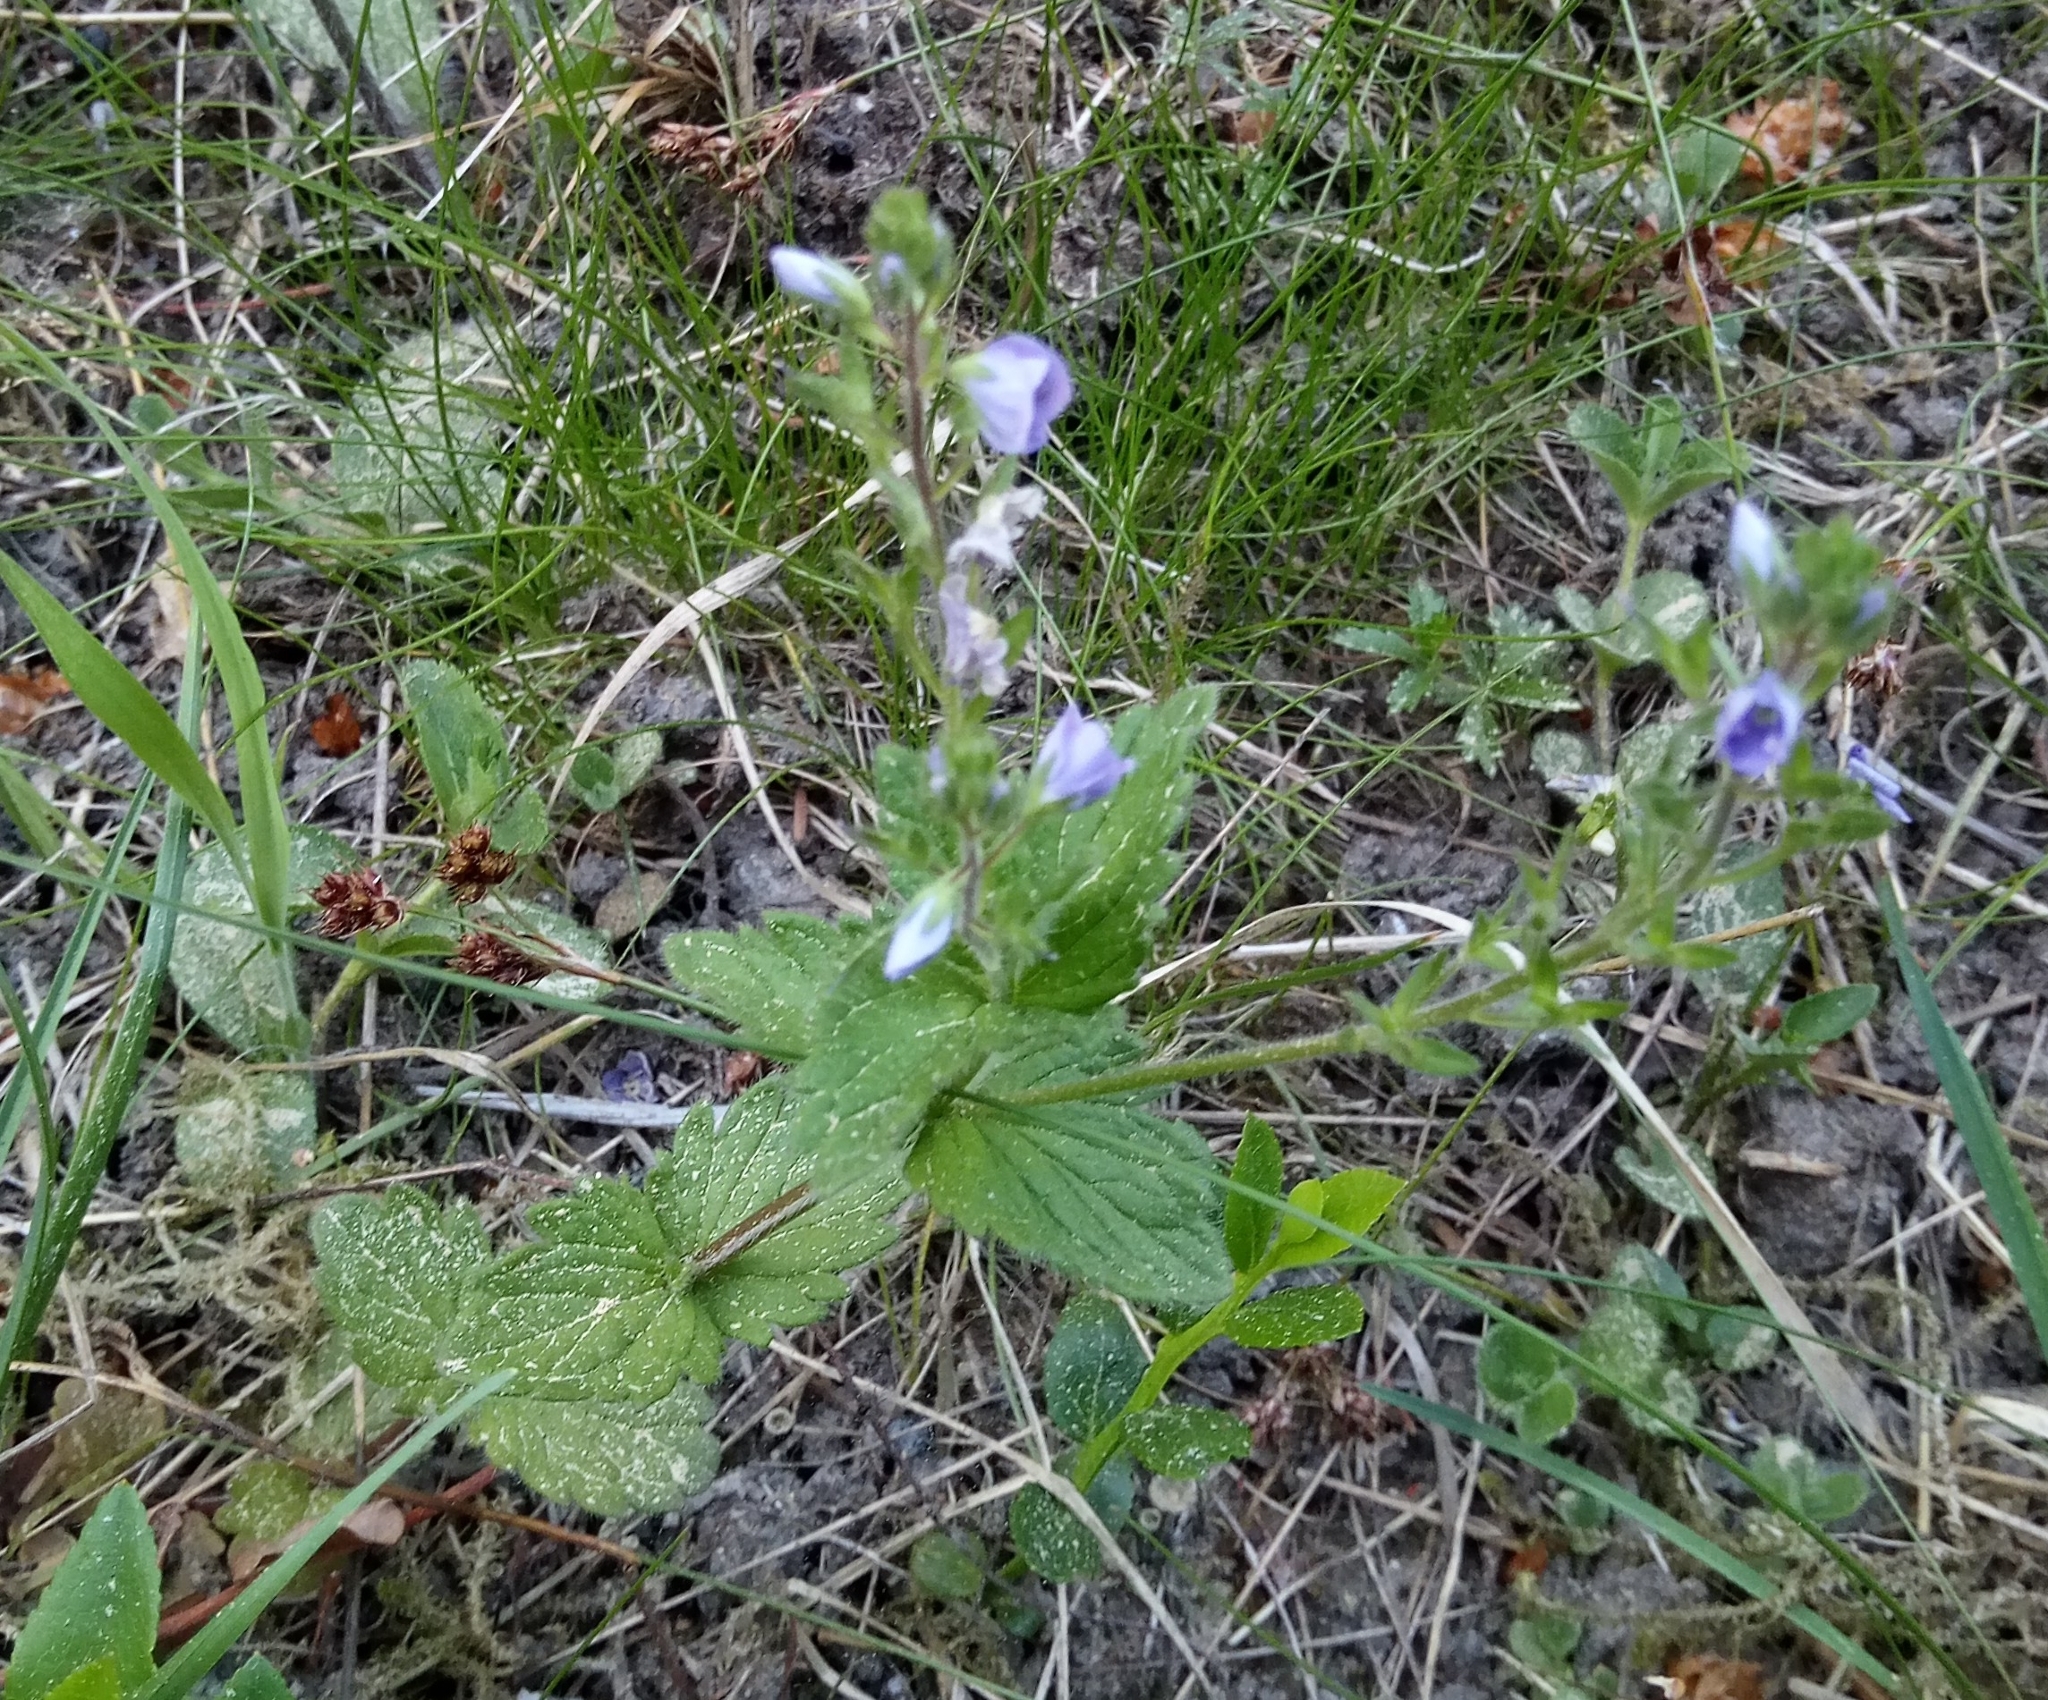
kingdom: Plantae
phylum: Tracheophyta
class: Magnoliopsida
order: Lamiales
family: Plantaginaceae
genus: Veronica
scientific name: Veronica chamaedrys
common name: Germander speedwell
